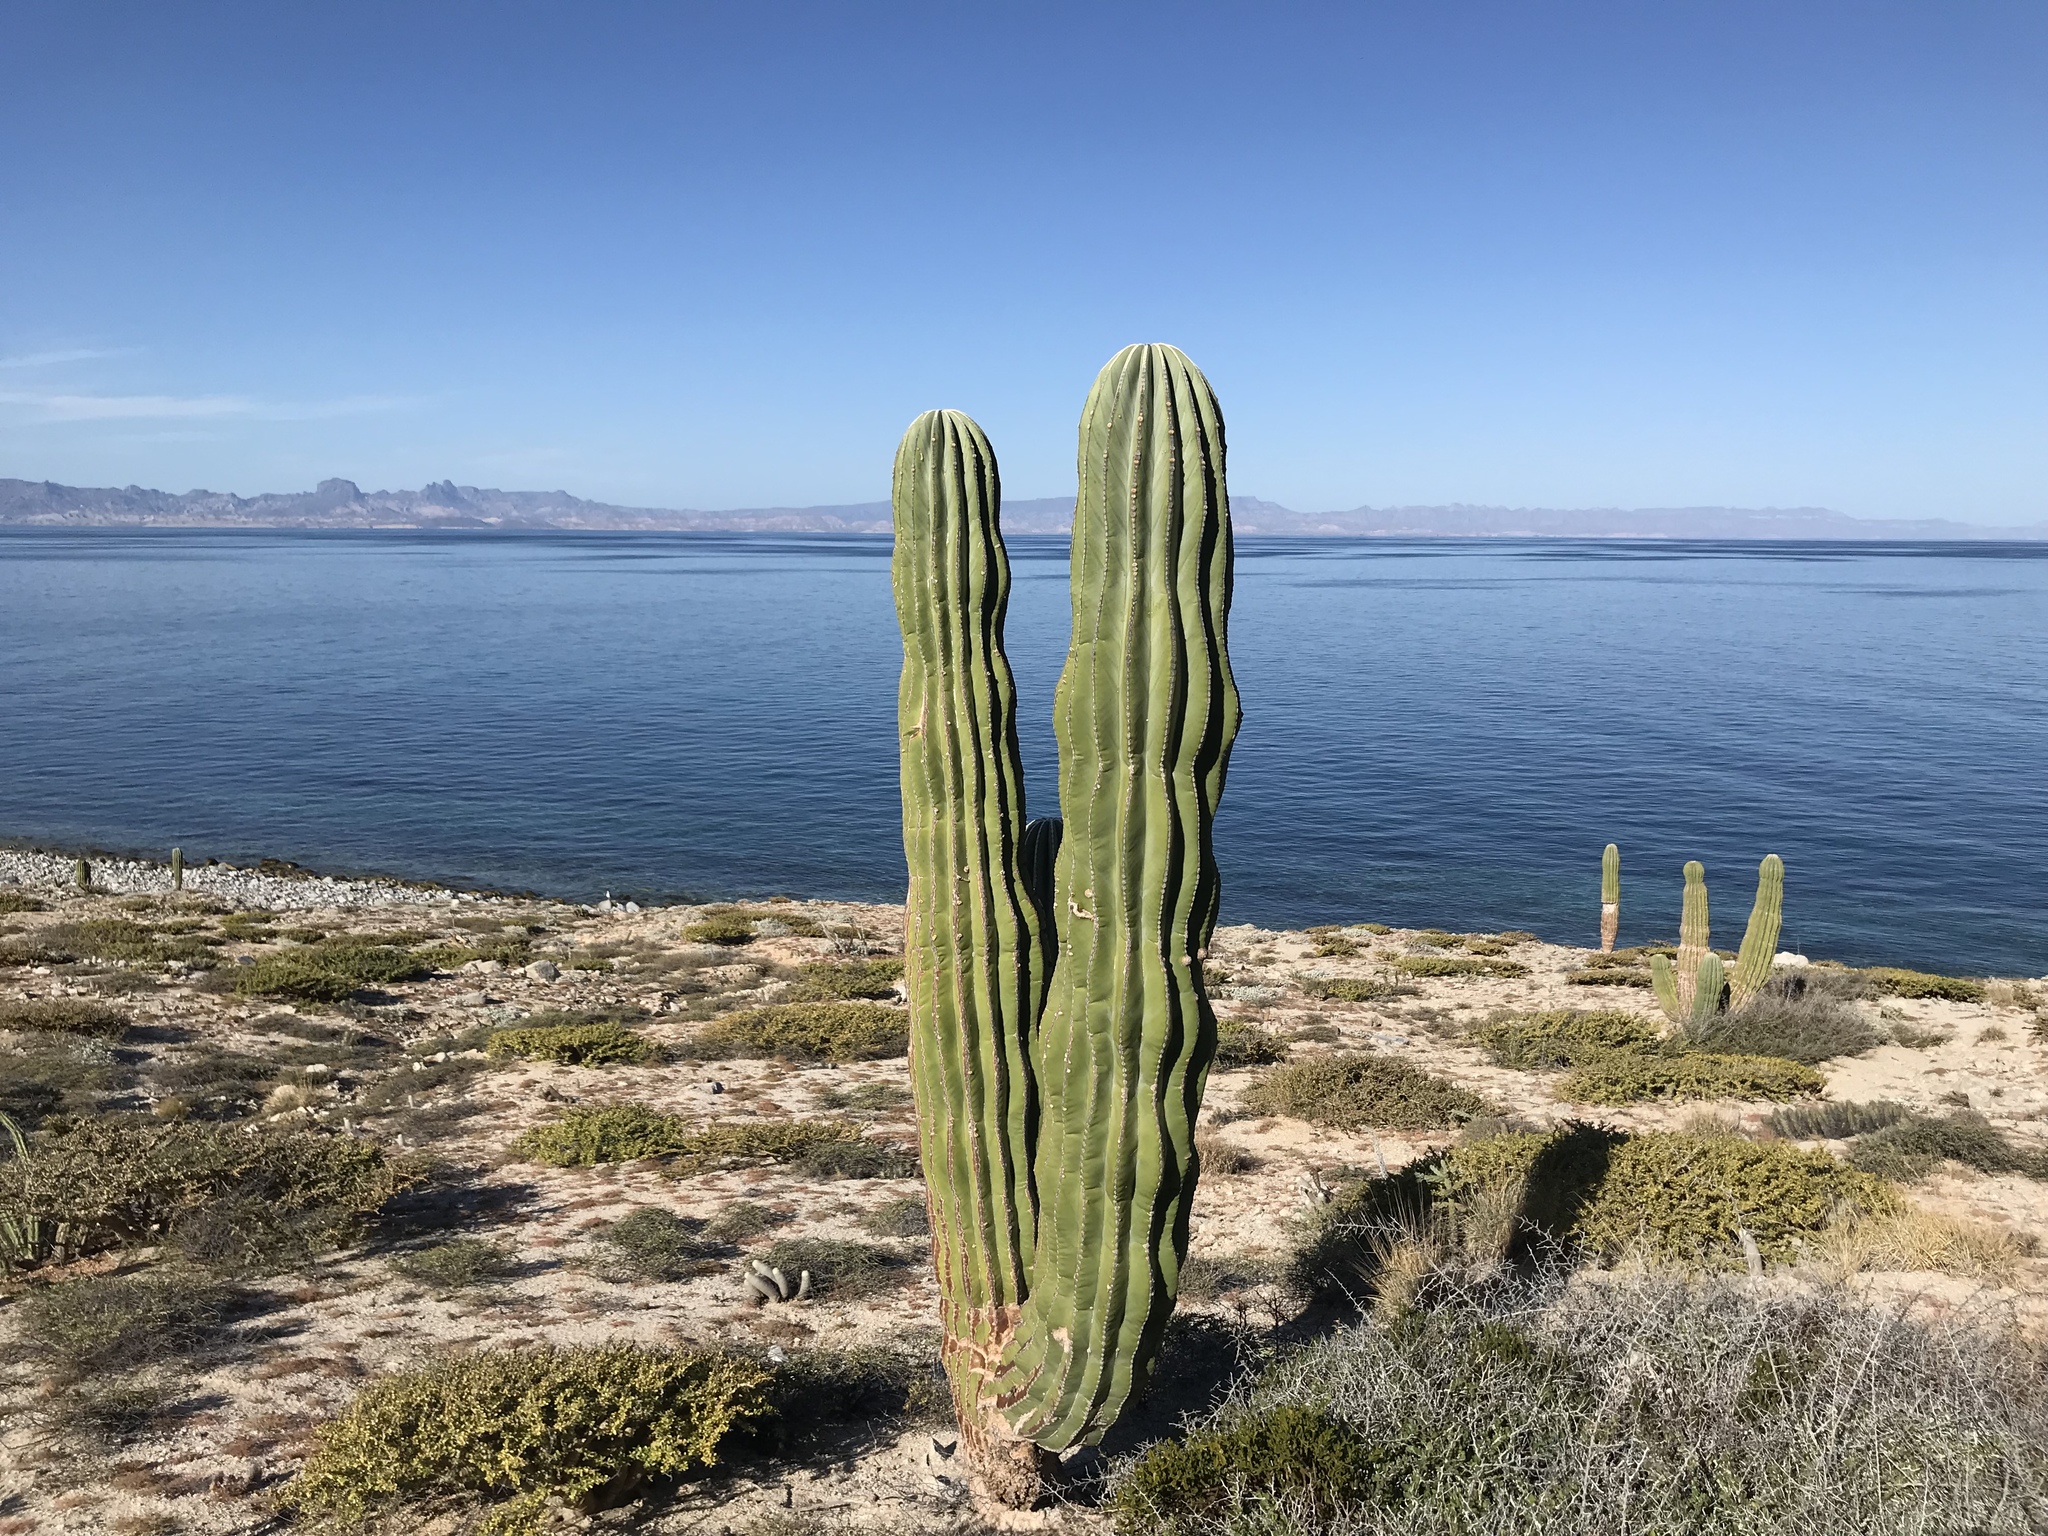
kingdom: Plantae
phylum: Tracheophyta
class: Magnoliopsida
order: Caryophyllales
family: Cactaceae
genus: Pachycereus
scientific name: Pachycereus pringlei
